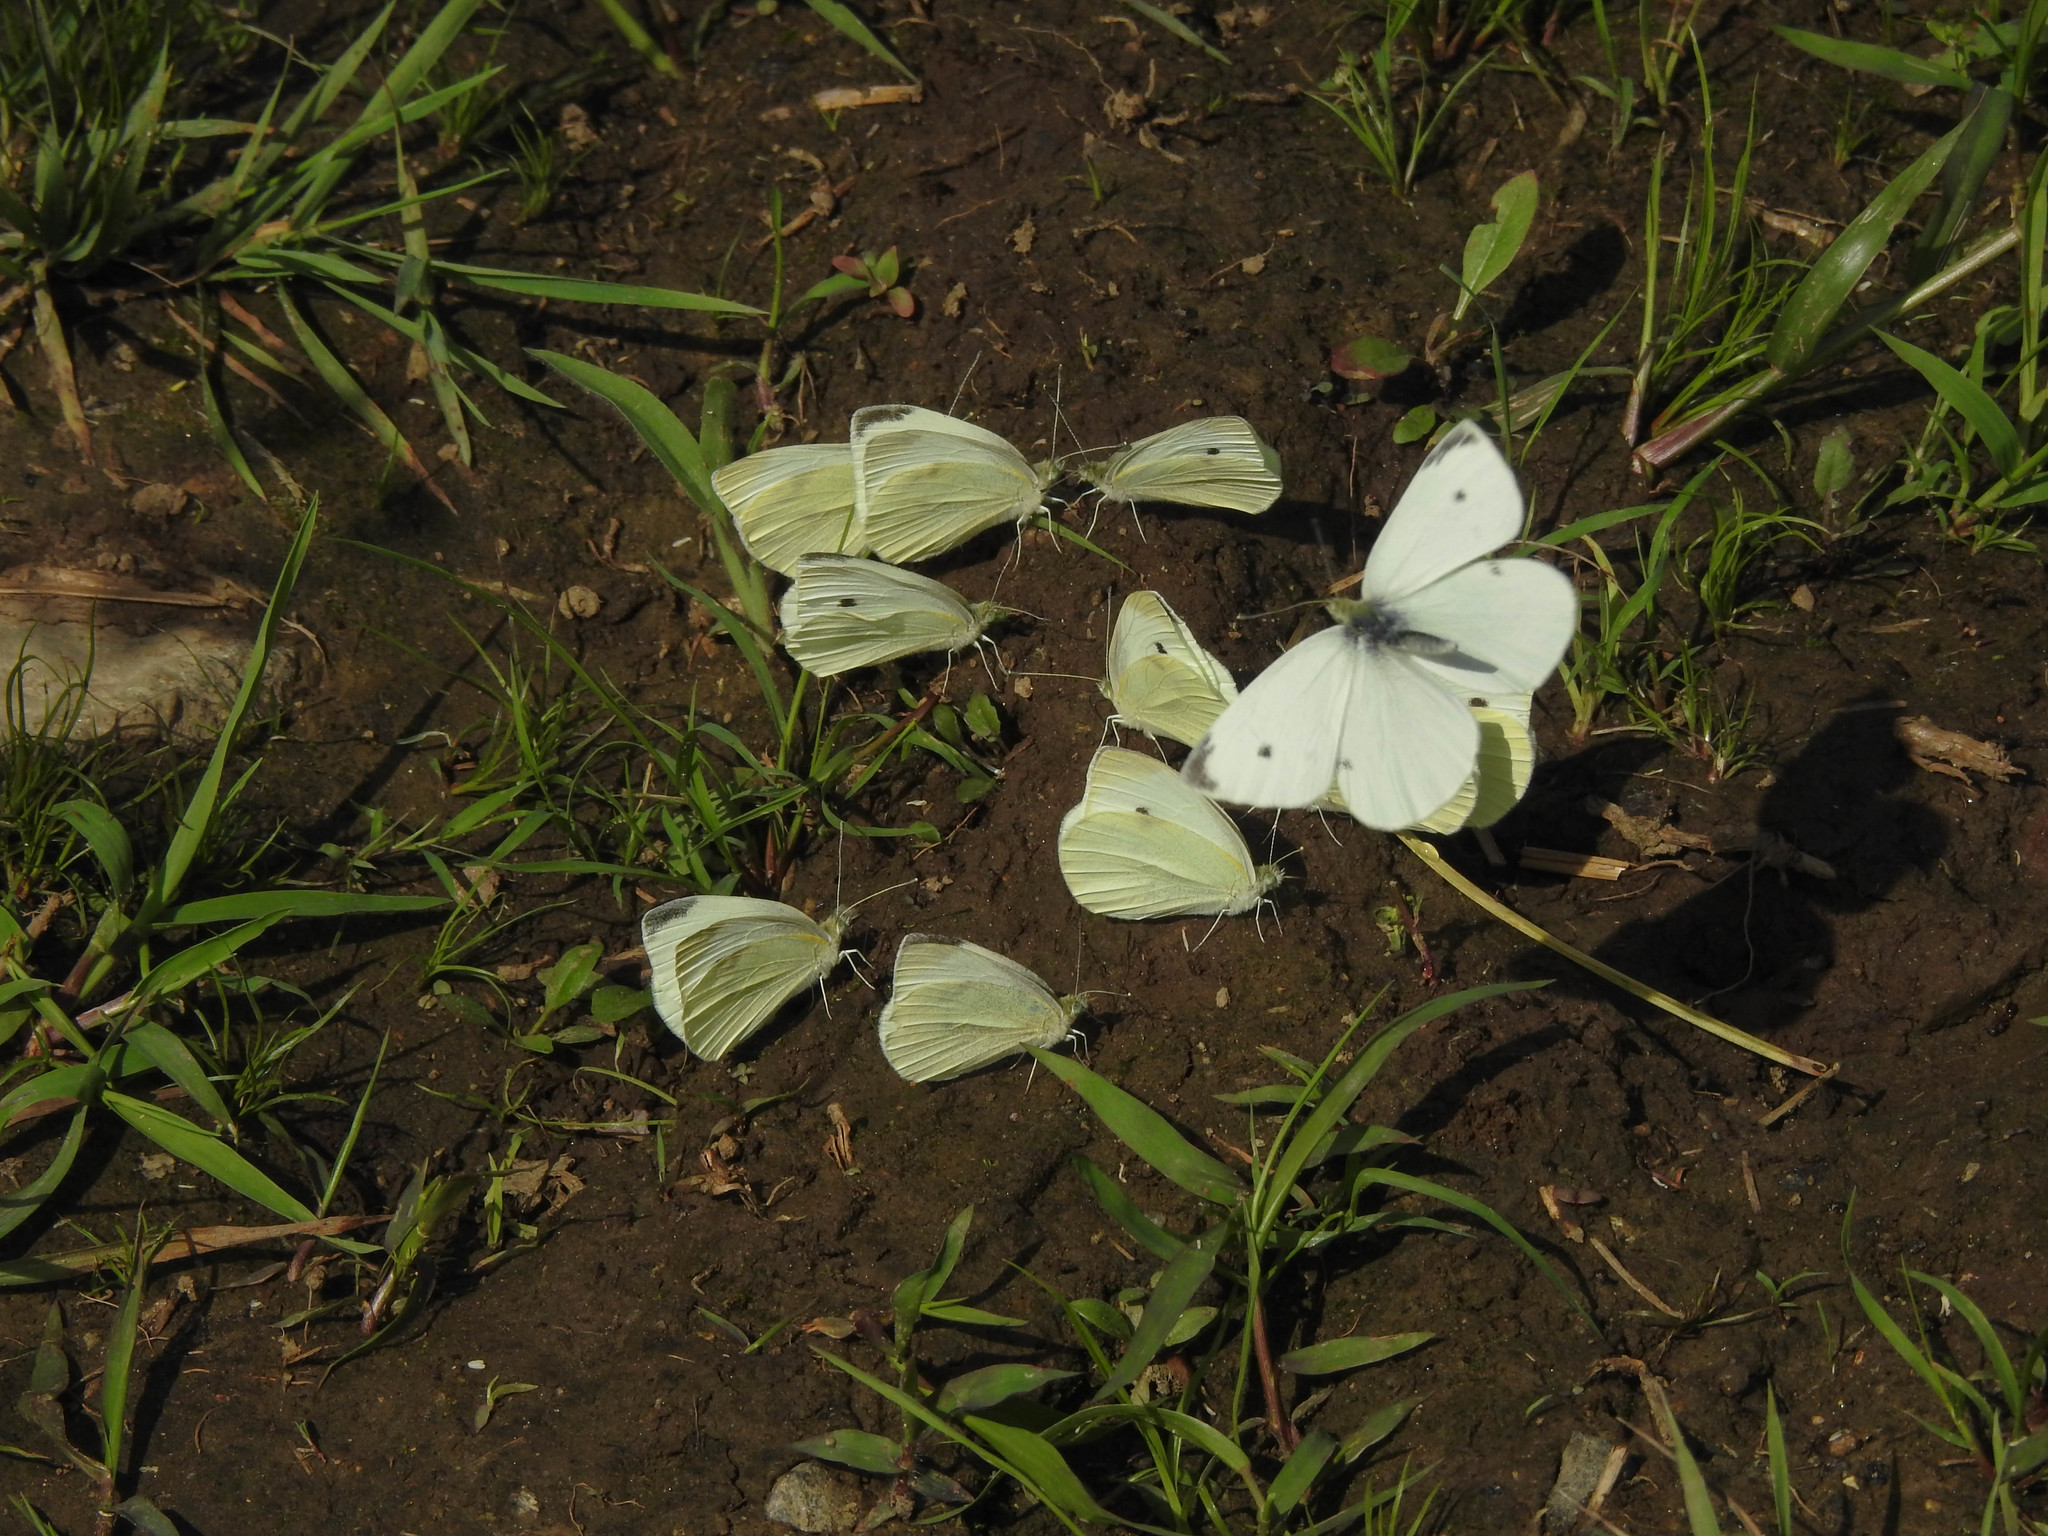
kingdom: Animalia
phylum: Arthropoda
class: Insecta
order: Lepidoptera
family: Pieridae
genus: Pieris
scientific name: Pieris rapae
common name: Small white
